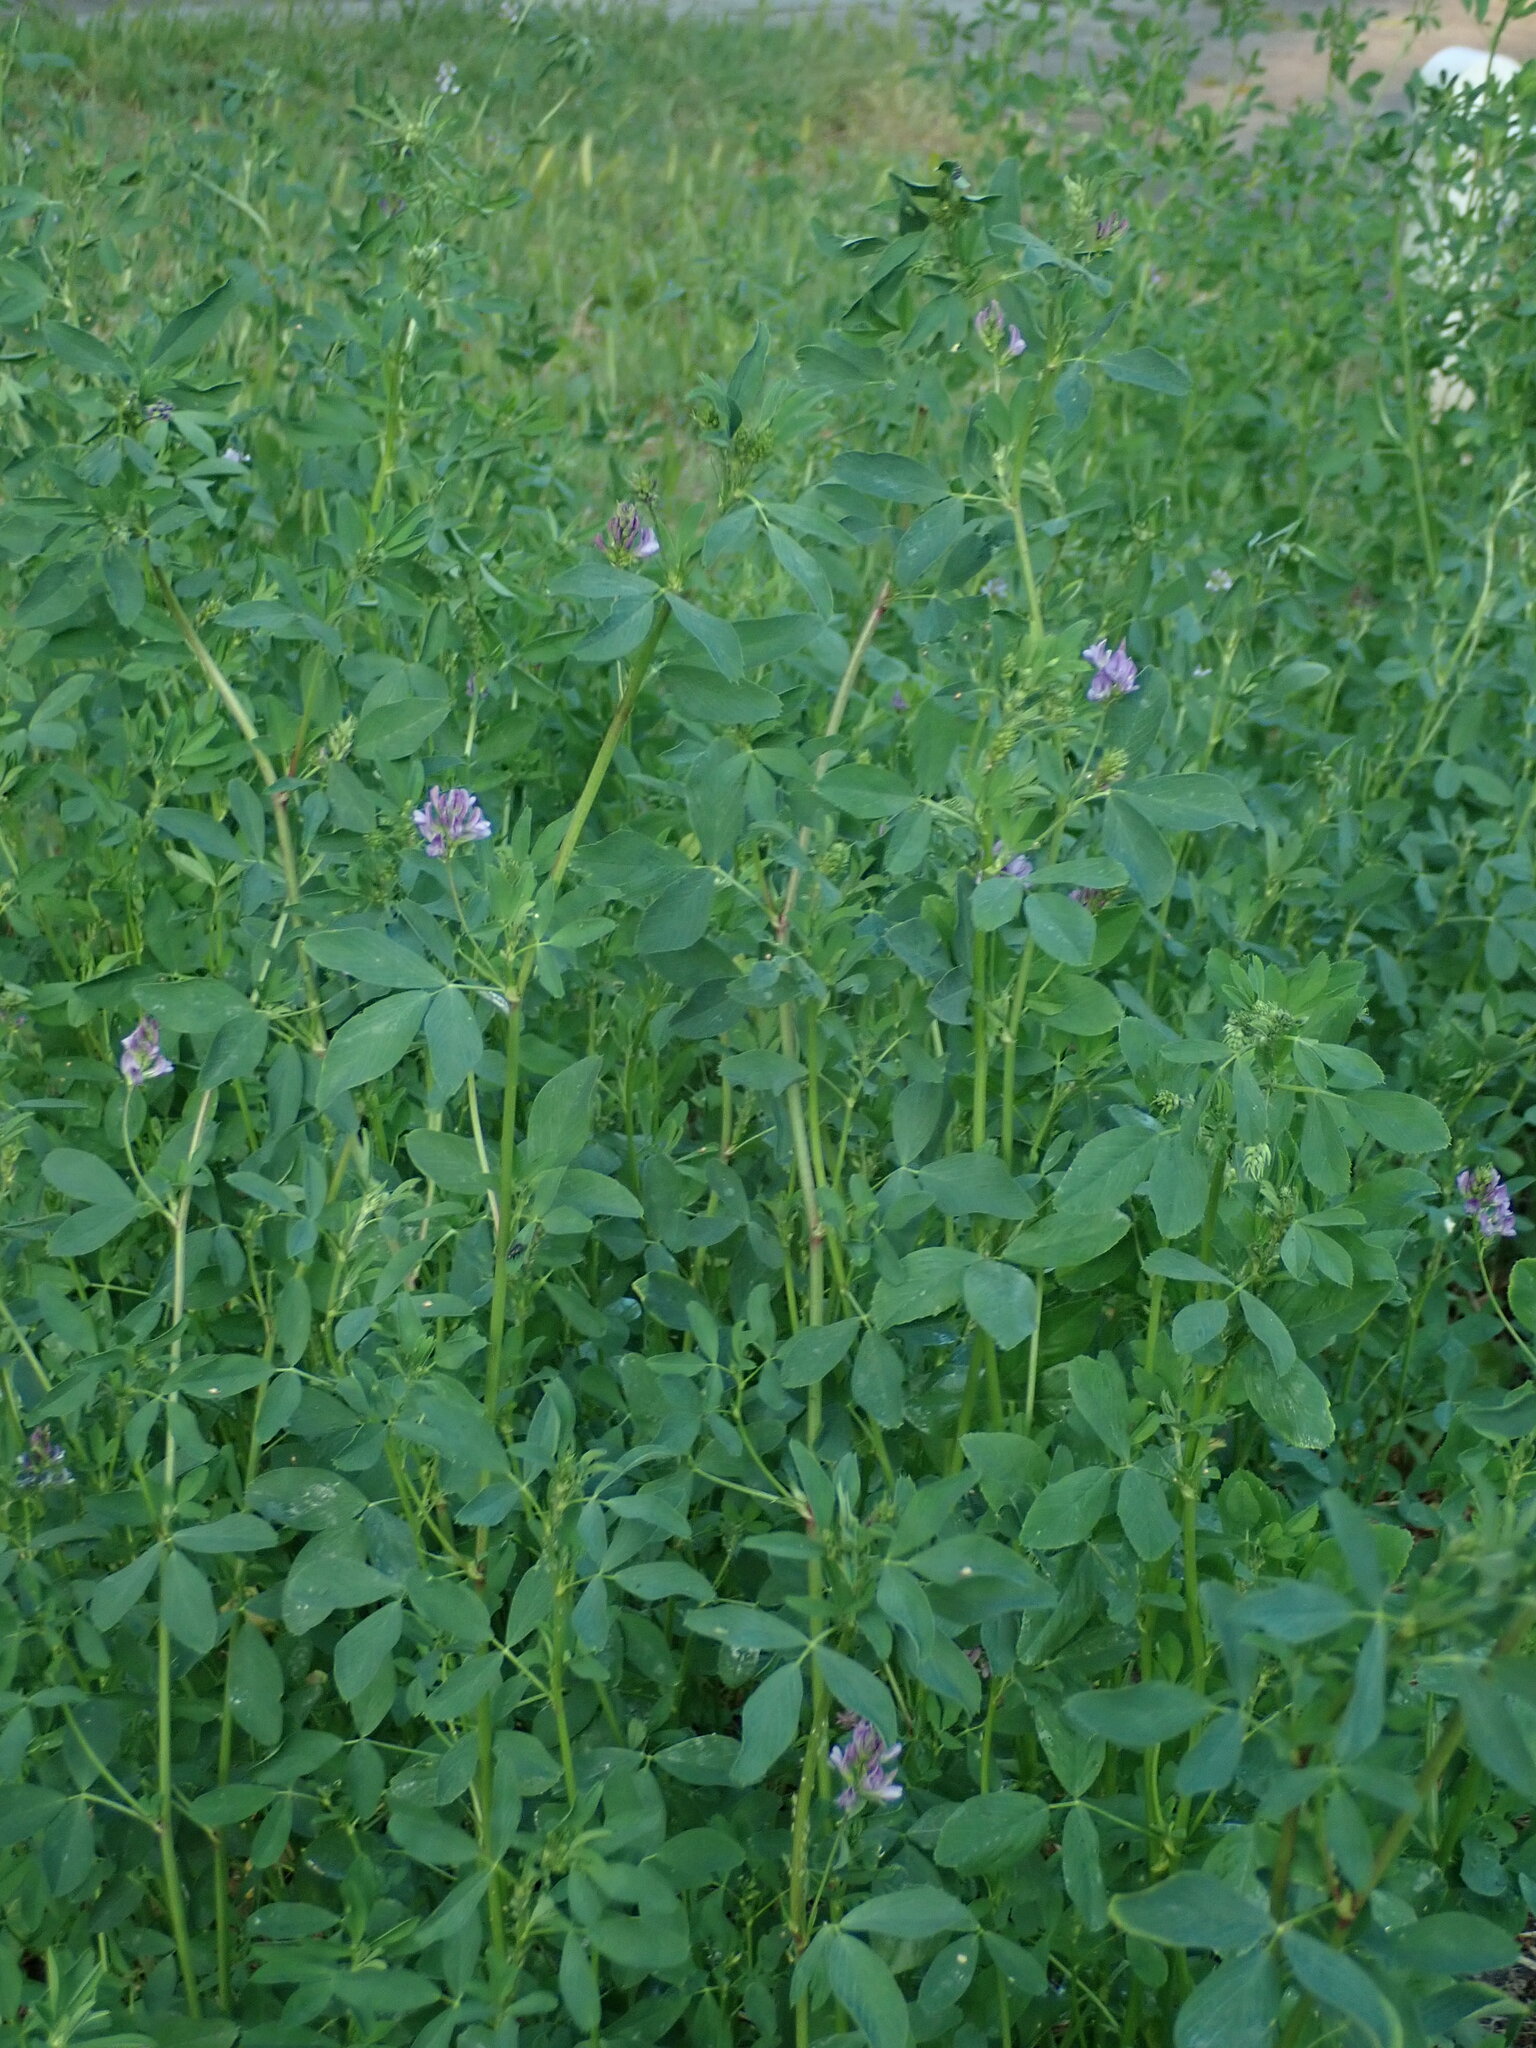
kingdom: Plantae
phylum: Tracheophyta
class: Magnoliopsida
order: Fabales
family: Fabaceae
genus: Medicago
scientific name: Medicago sativa
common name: Alfalfa
